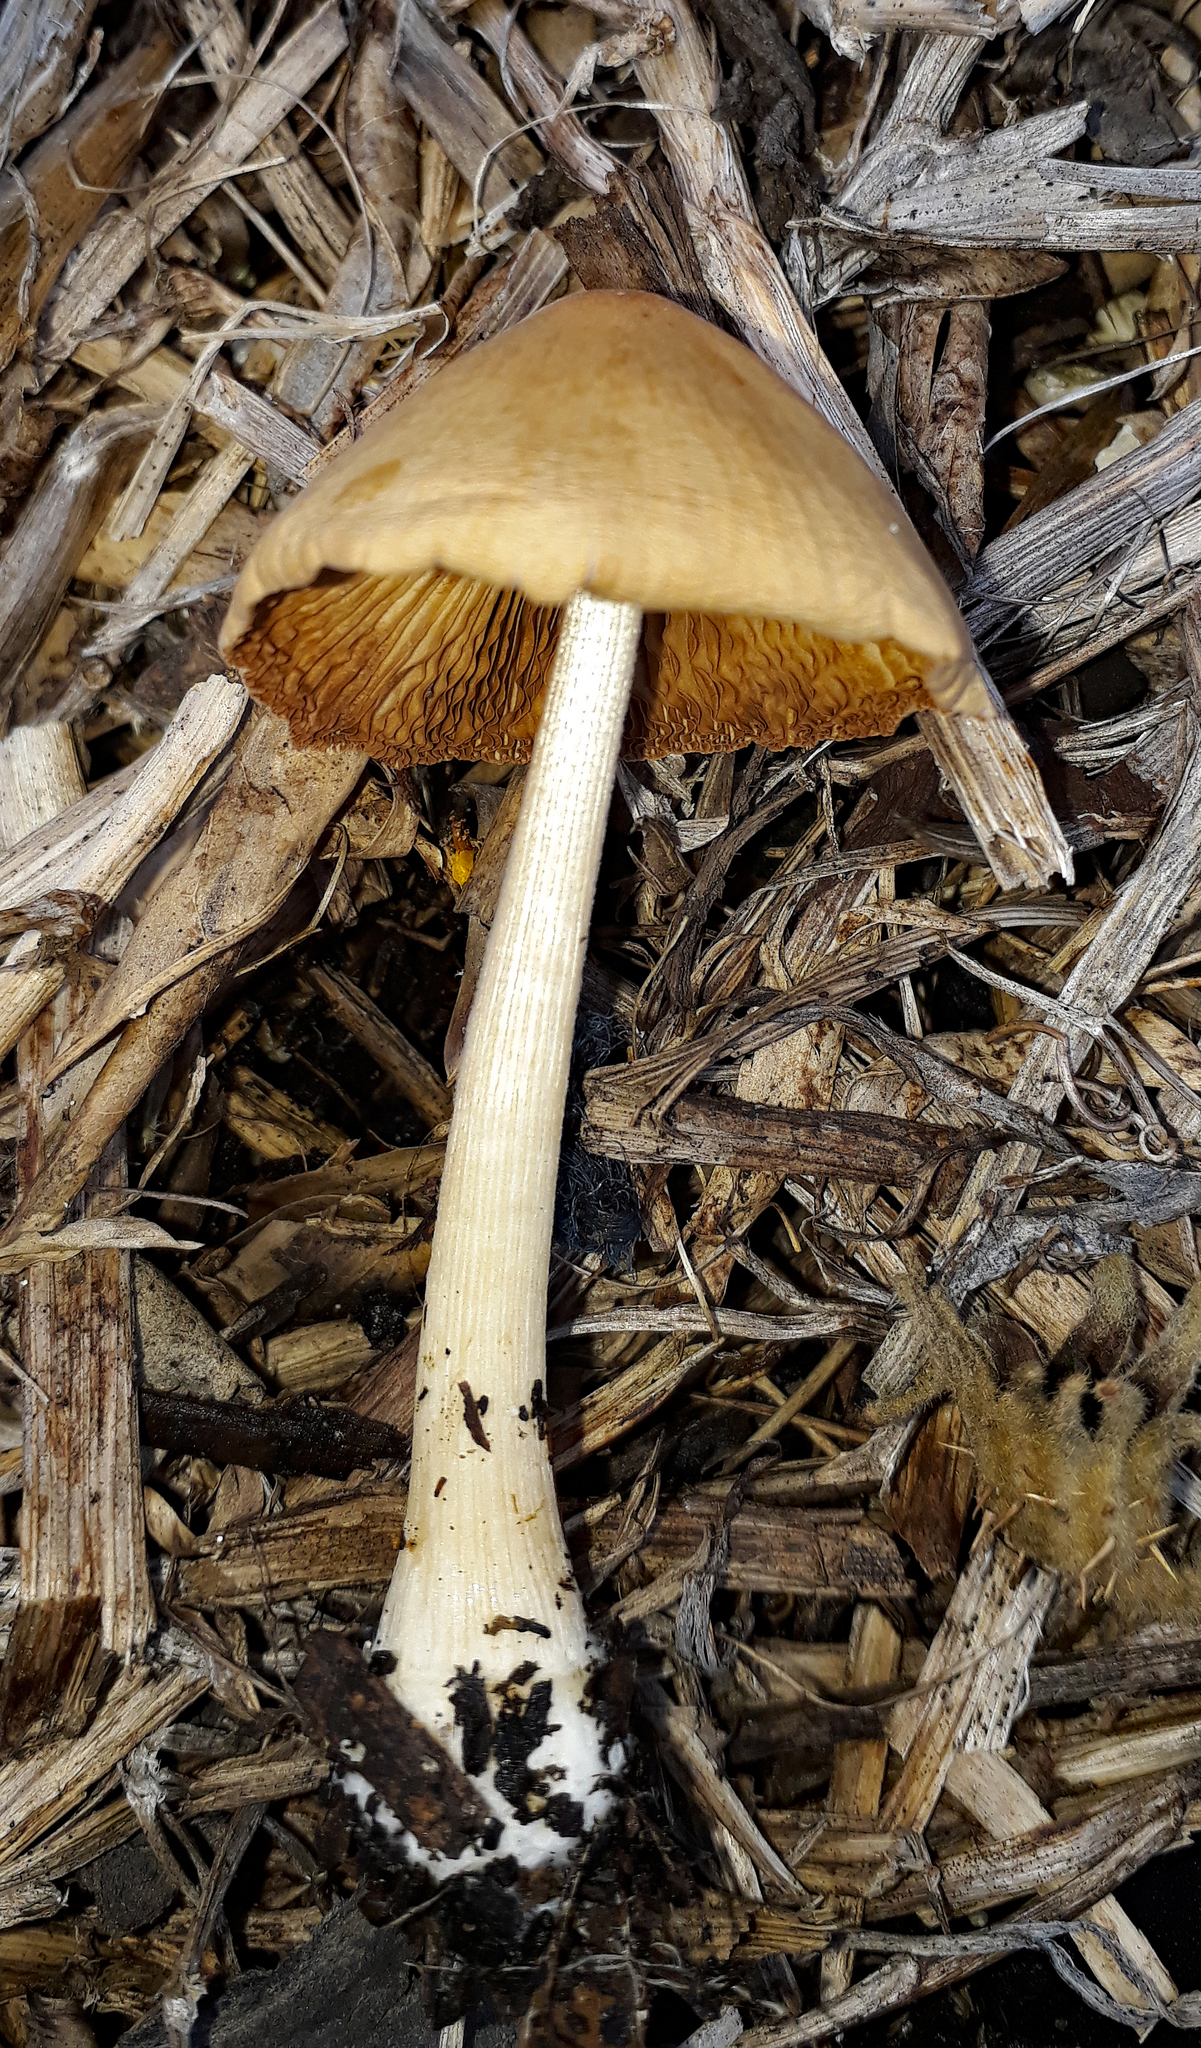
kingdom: Fungi
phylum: Basidiomycota
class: Agaricomycetes
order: Agaricales
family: Bolbitiaceae
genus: Bolbitius
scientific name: Bolbitius titubans
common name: Yellow fieldcap
